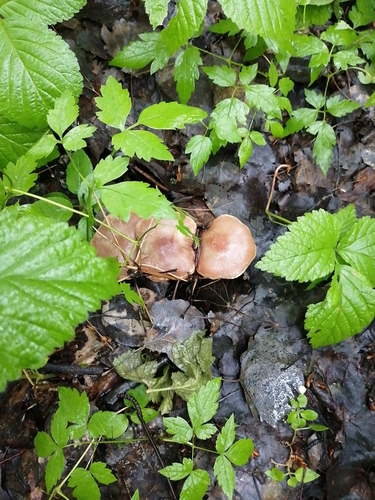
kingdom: Fungi
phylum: Basidiomycota
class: Agaricomycetes
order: Agaricales
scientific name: Agaricales
